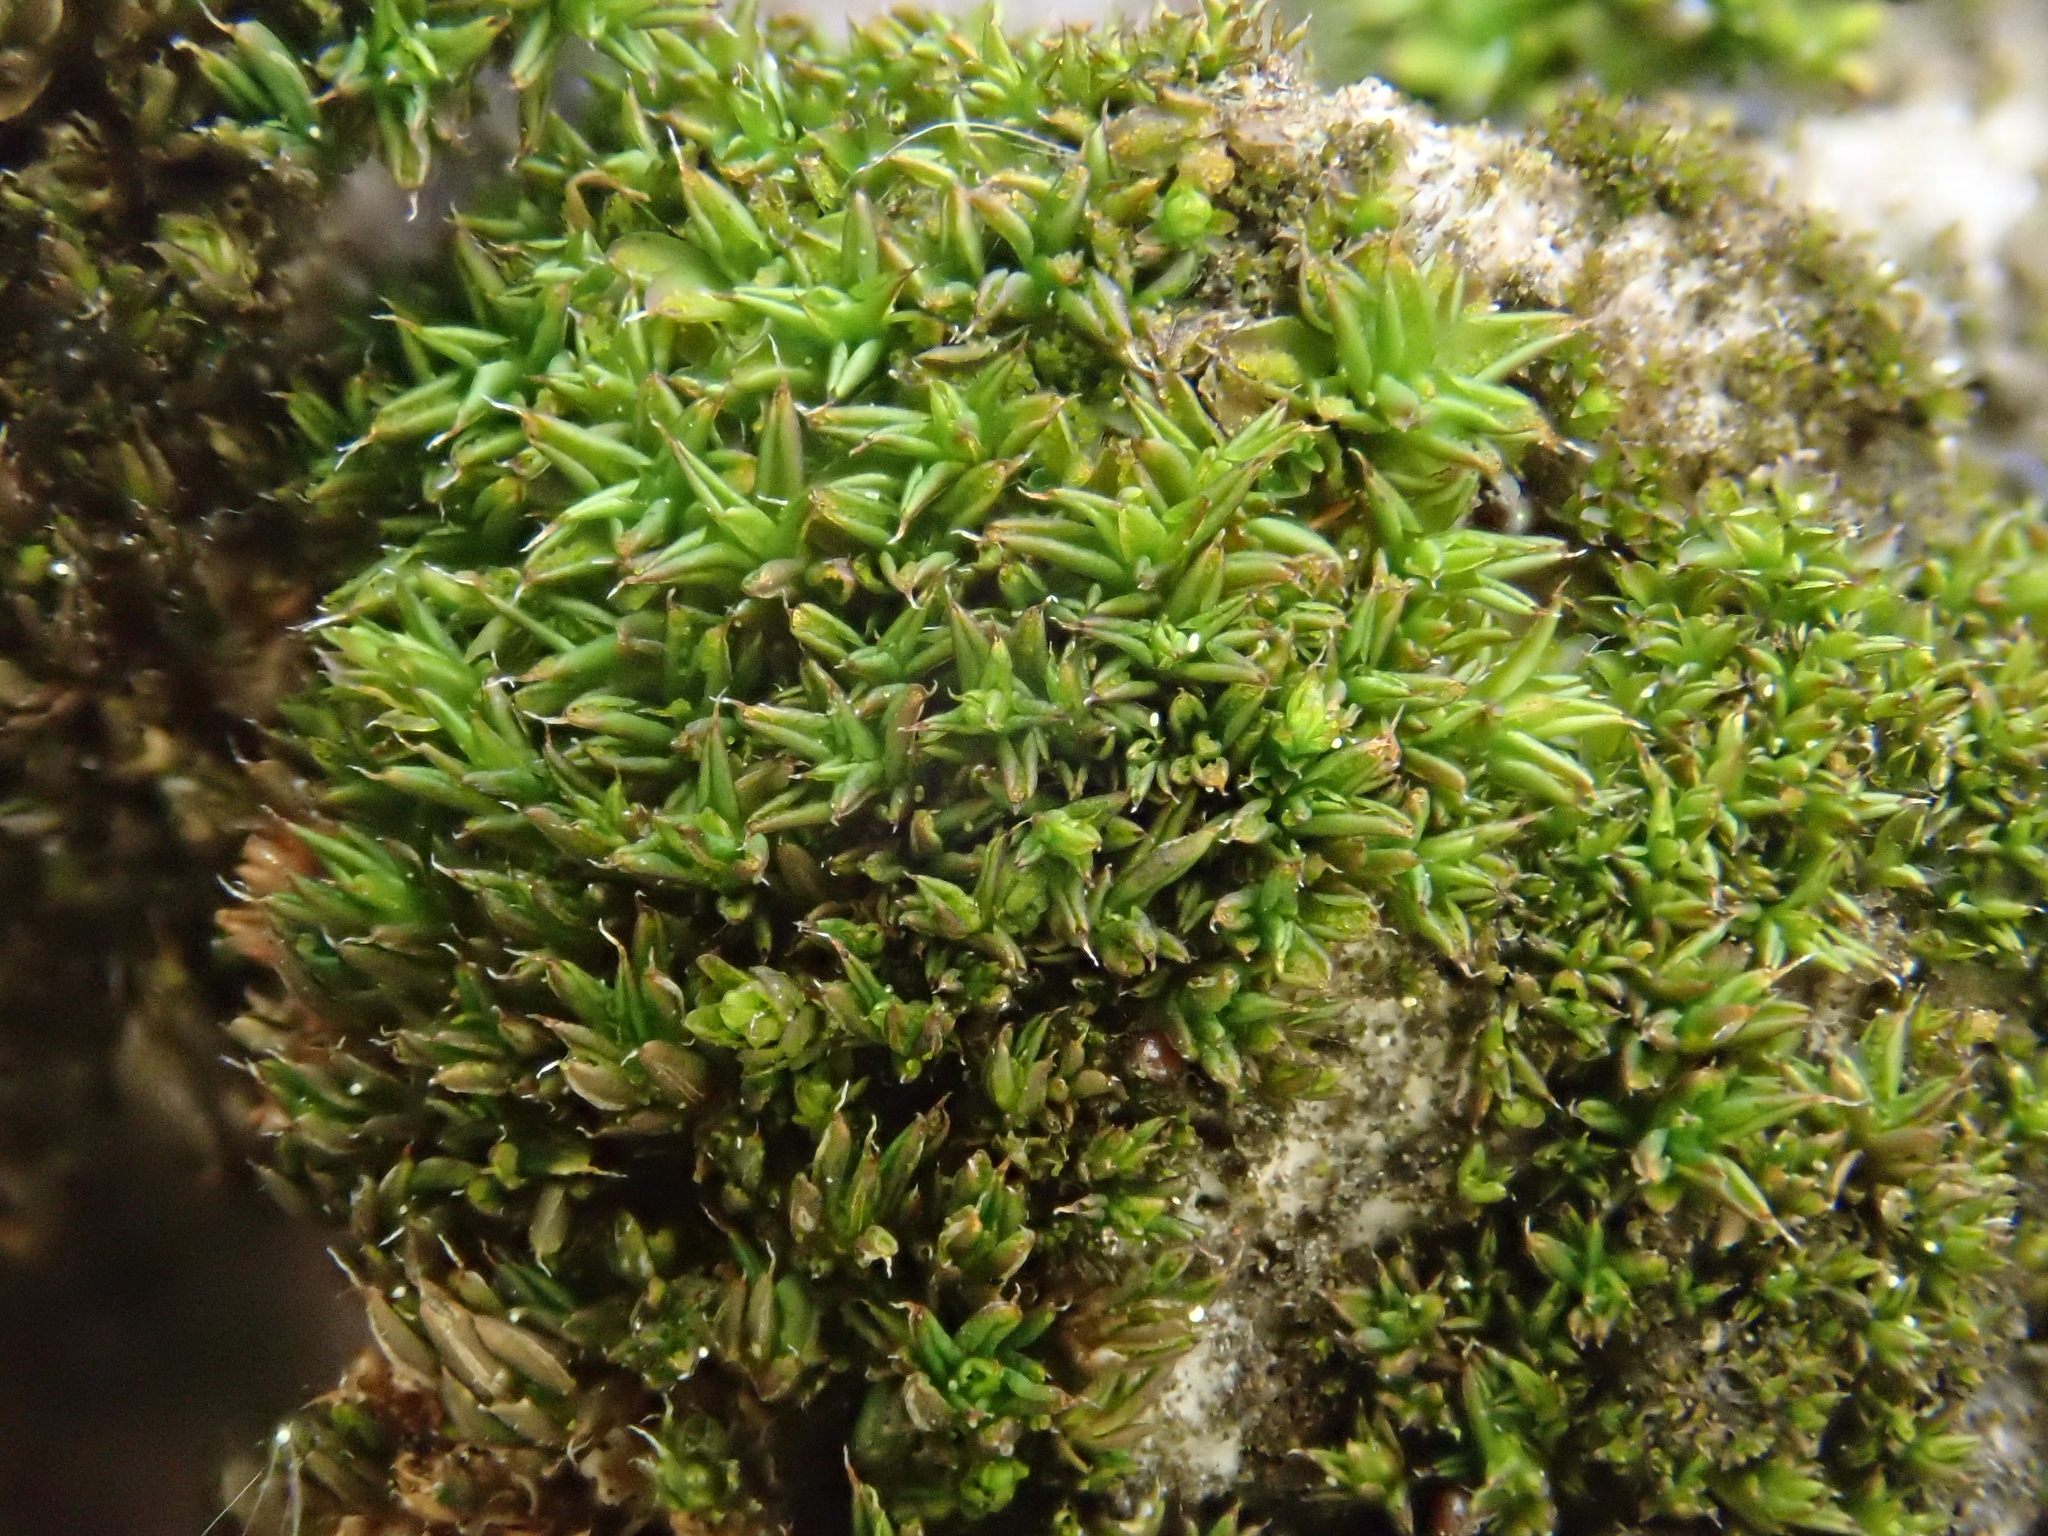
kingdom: Plantae
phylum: Bryophyta
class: Bryopsida
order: Pottiales
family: Pottiaceae
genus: Syntrichia
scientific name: Syntrichia papillosa
